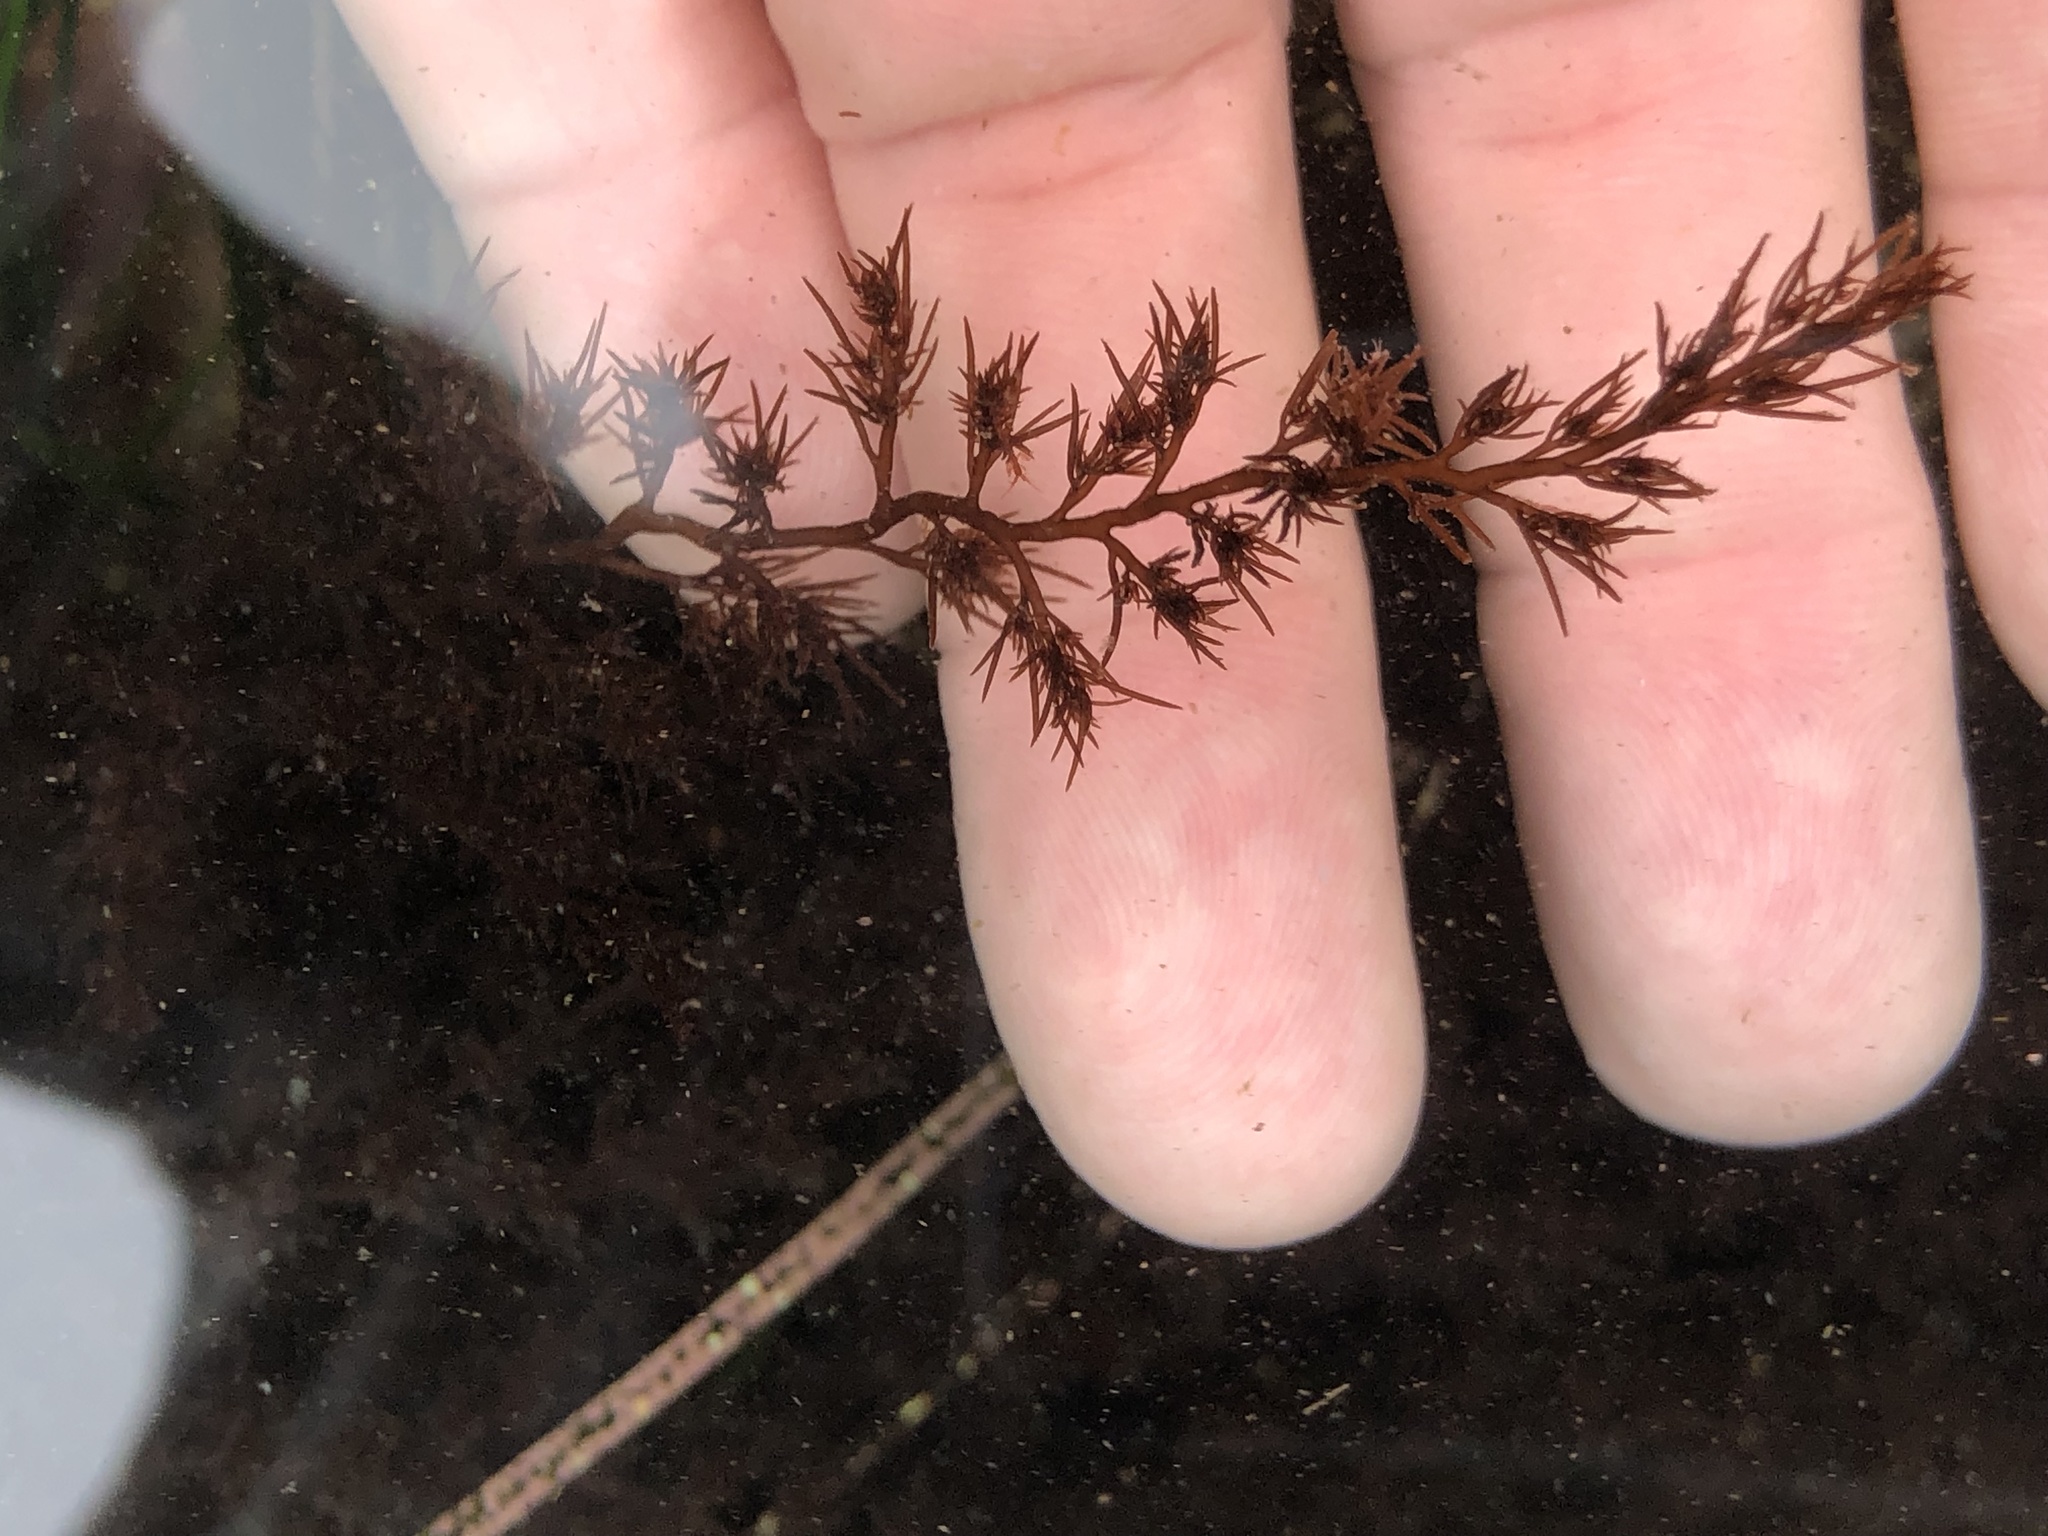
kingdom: Plantae
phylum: Rhodophyta
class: Florideophyceae
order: Ceramiales
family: Rhodomelaceae
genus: Odonthalia
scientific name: Odonthalia floccosa
